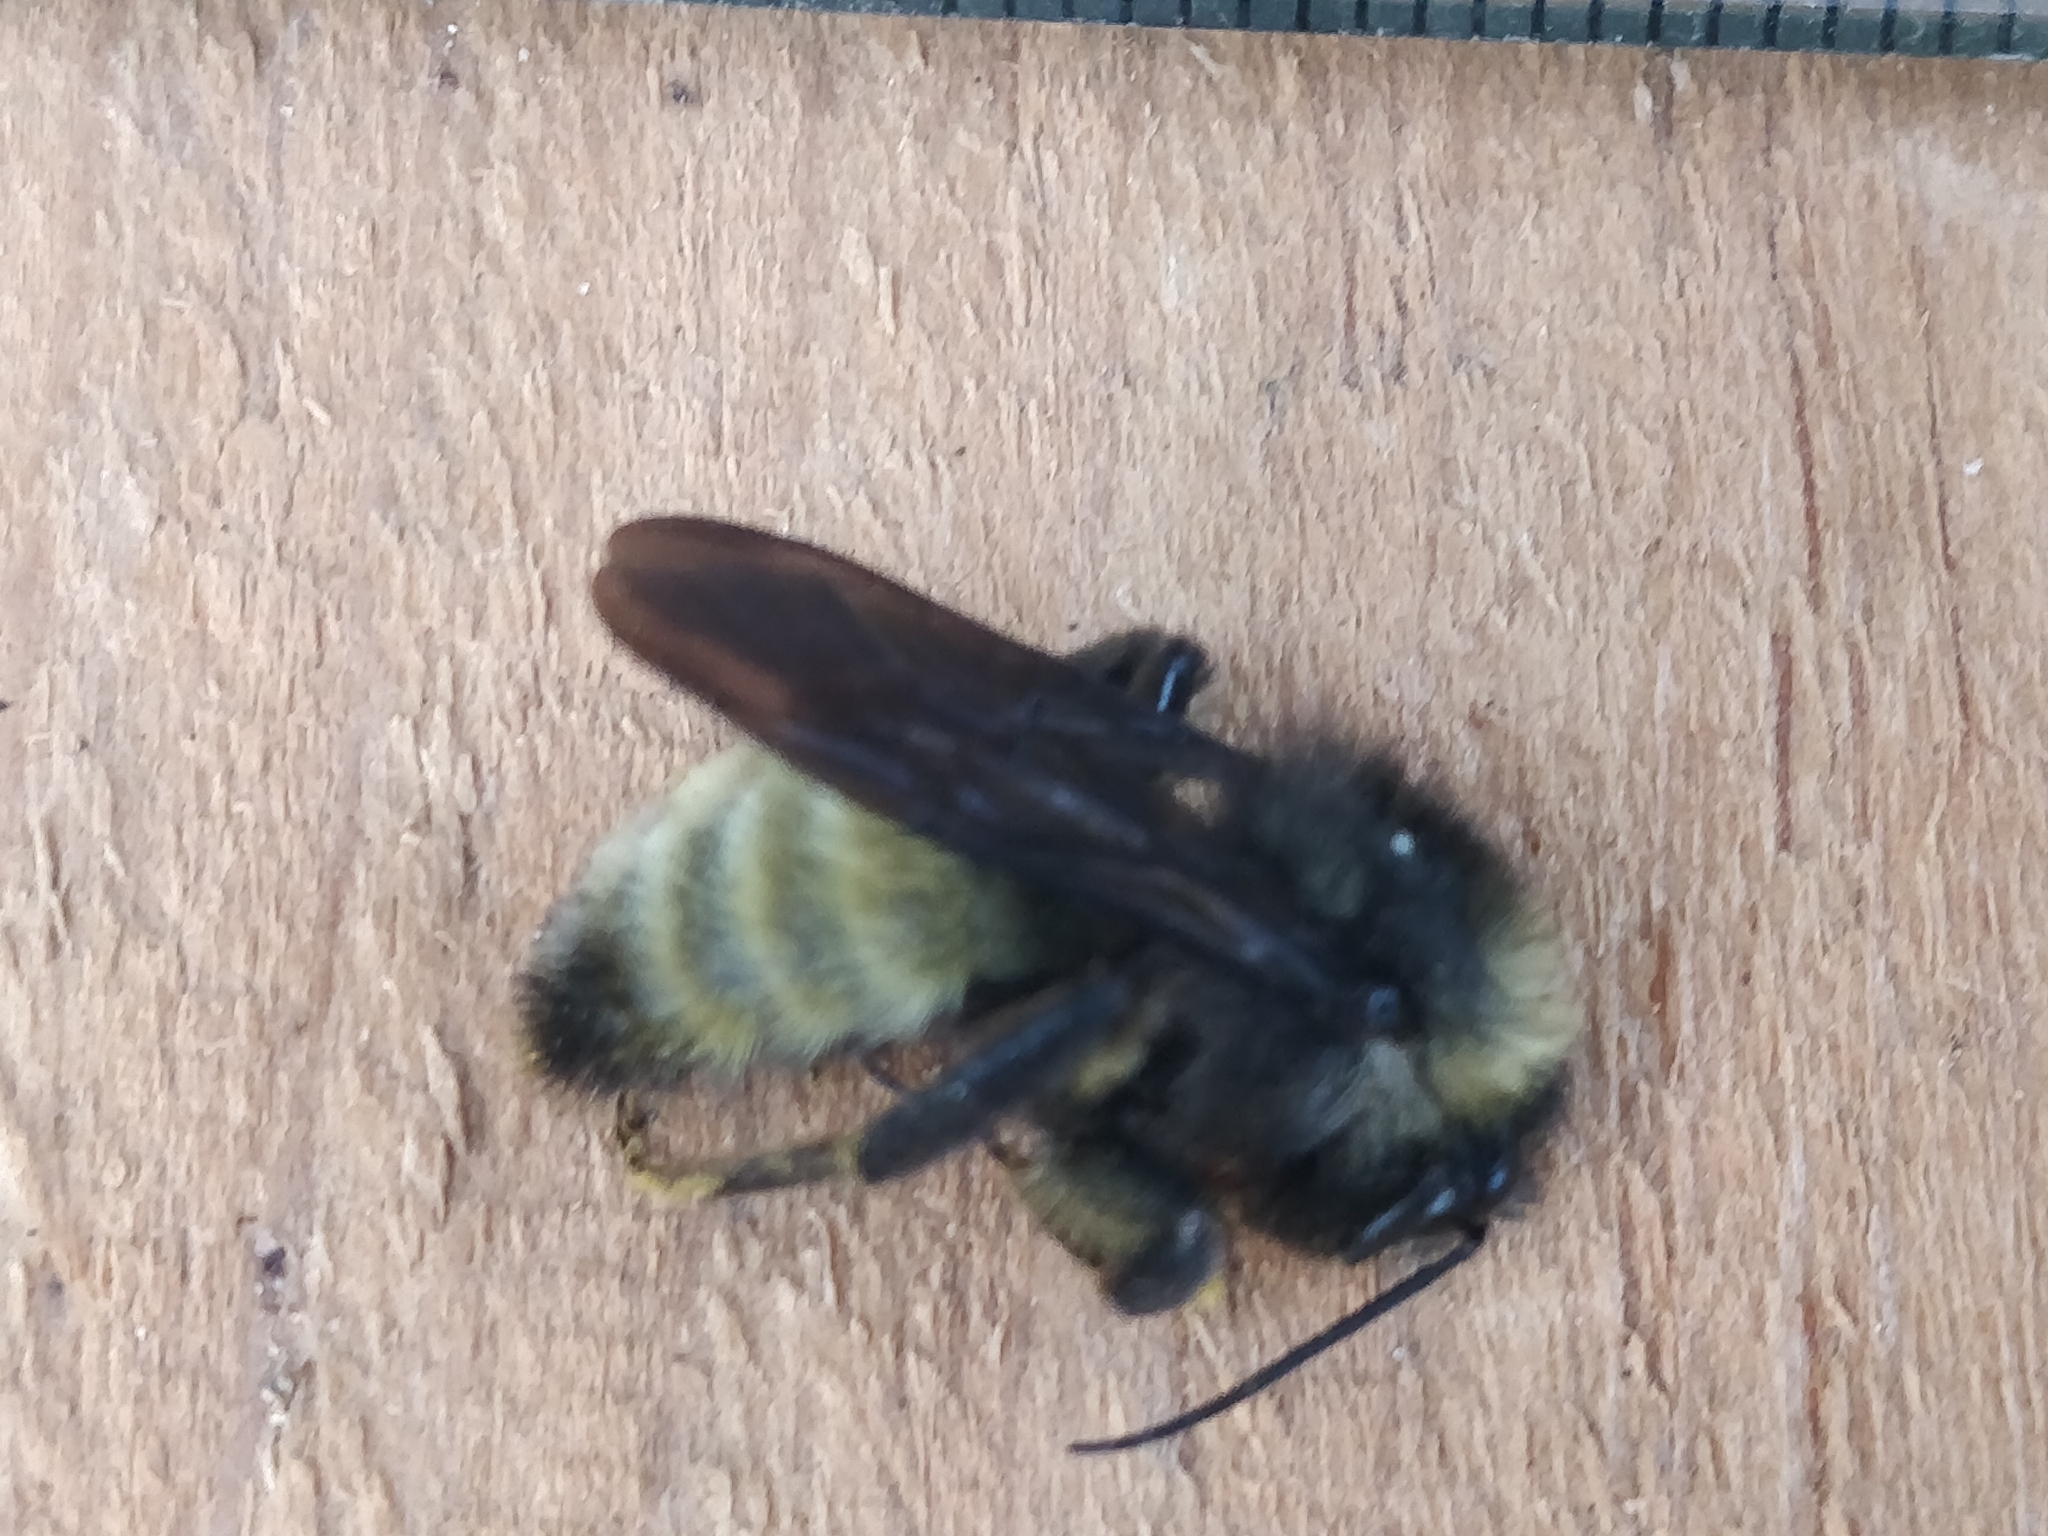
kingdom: Animalia
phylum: Arthropoda
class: Insecta
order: Hymenoptera
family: Apidae
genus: Bombus
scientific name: Bombus pensylvanicus
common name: Bumble bee
